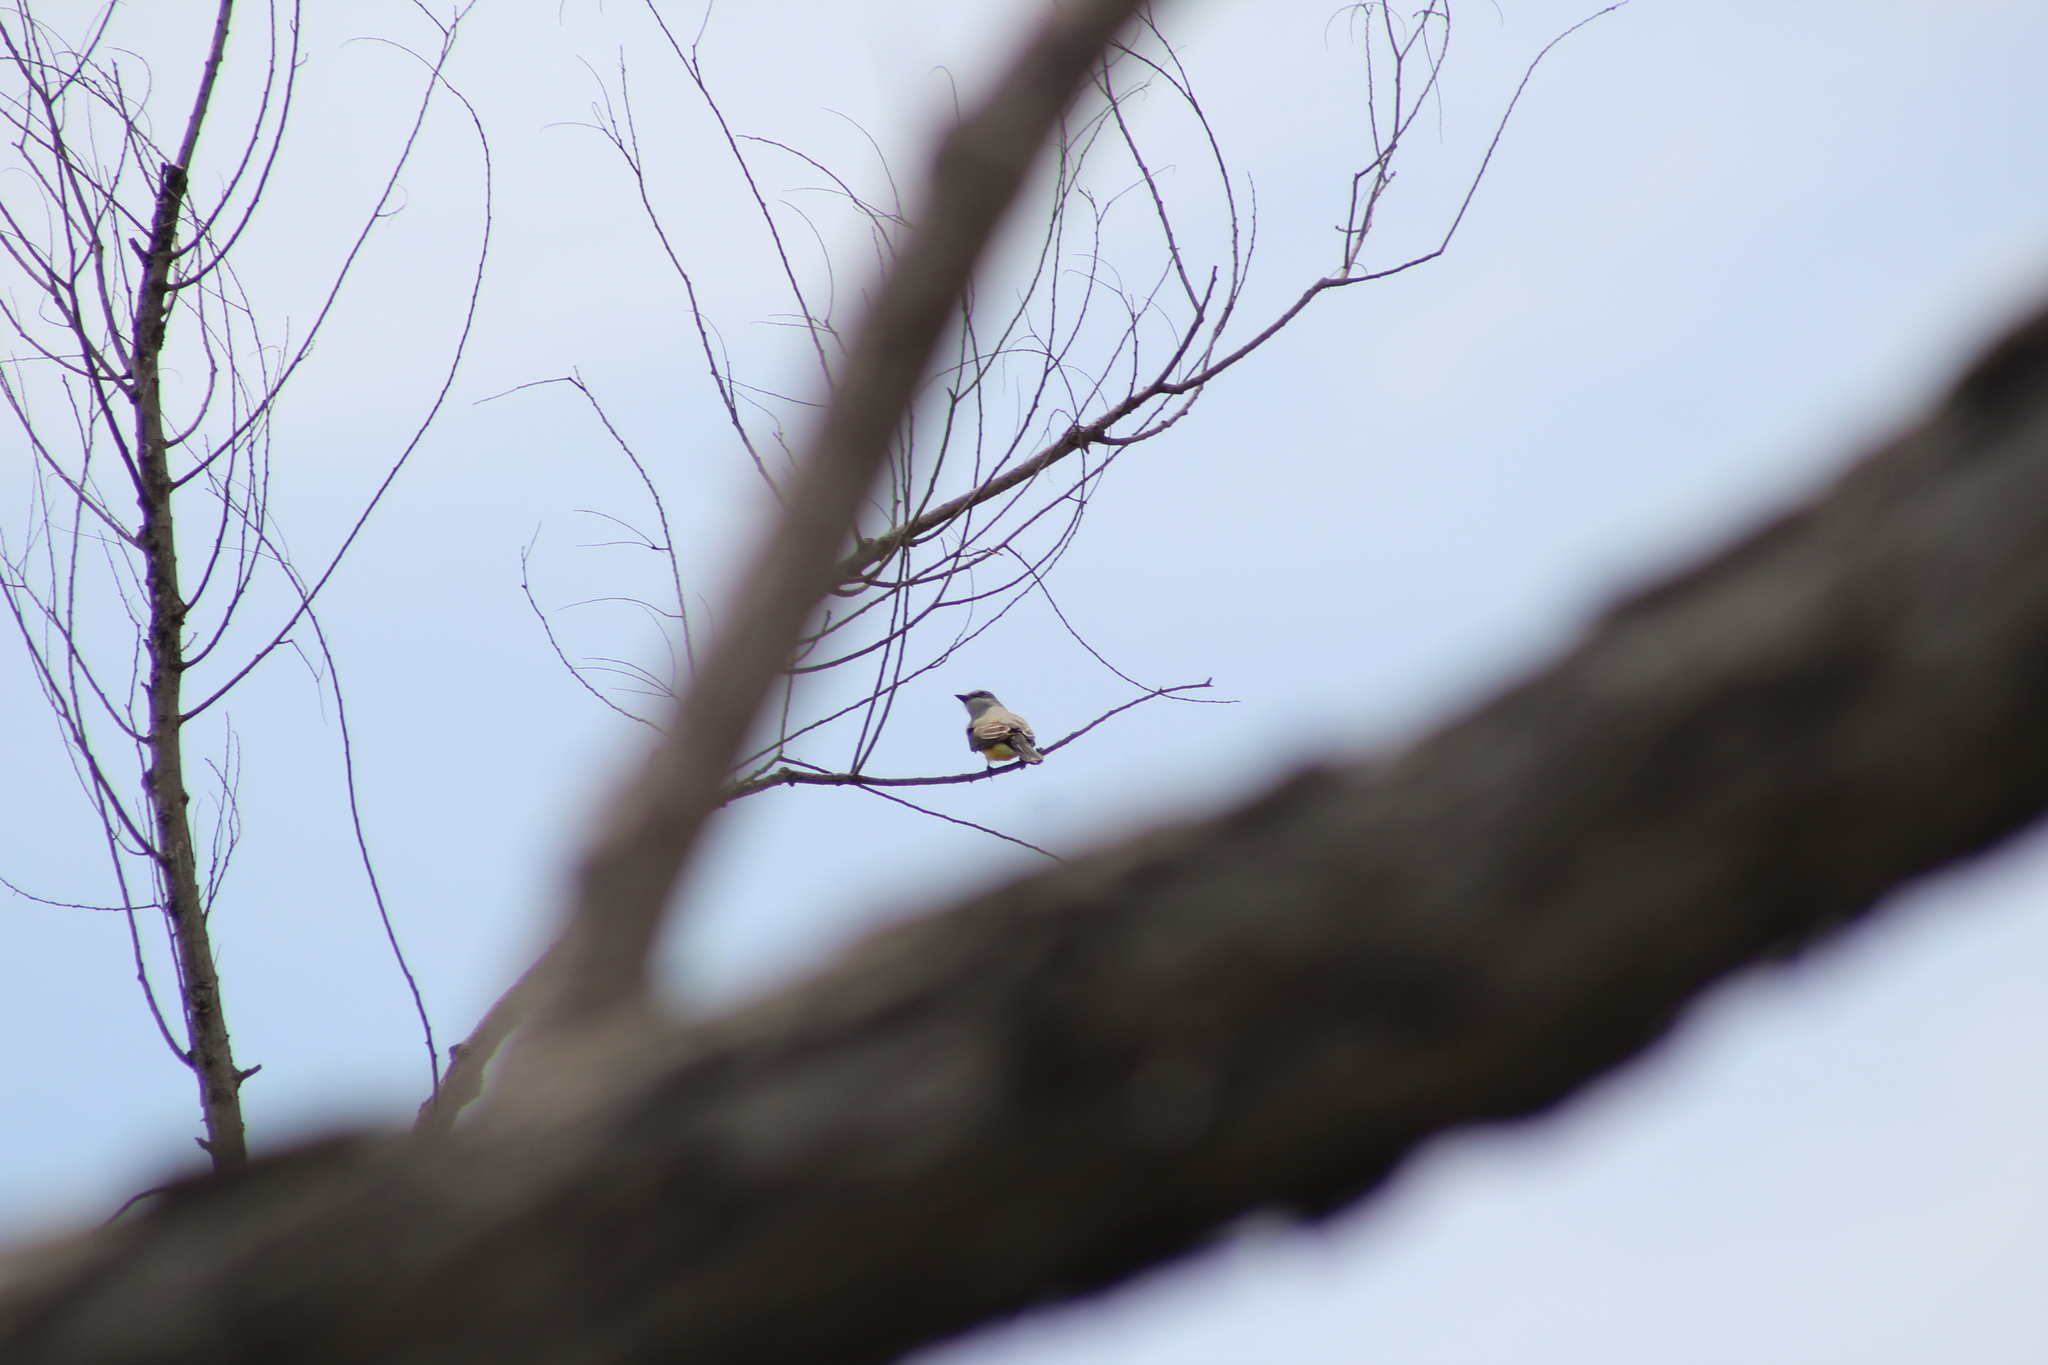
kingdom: Animalia
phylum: Chordata
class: Aves
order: Passeriformes
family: Tyrannidae
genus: Tyrannus
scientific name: Tyrannus verticalis
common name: Western kingbird
